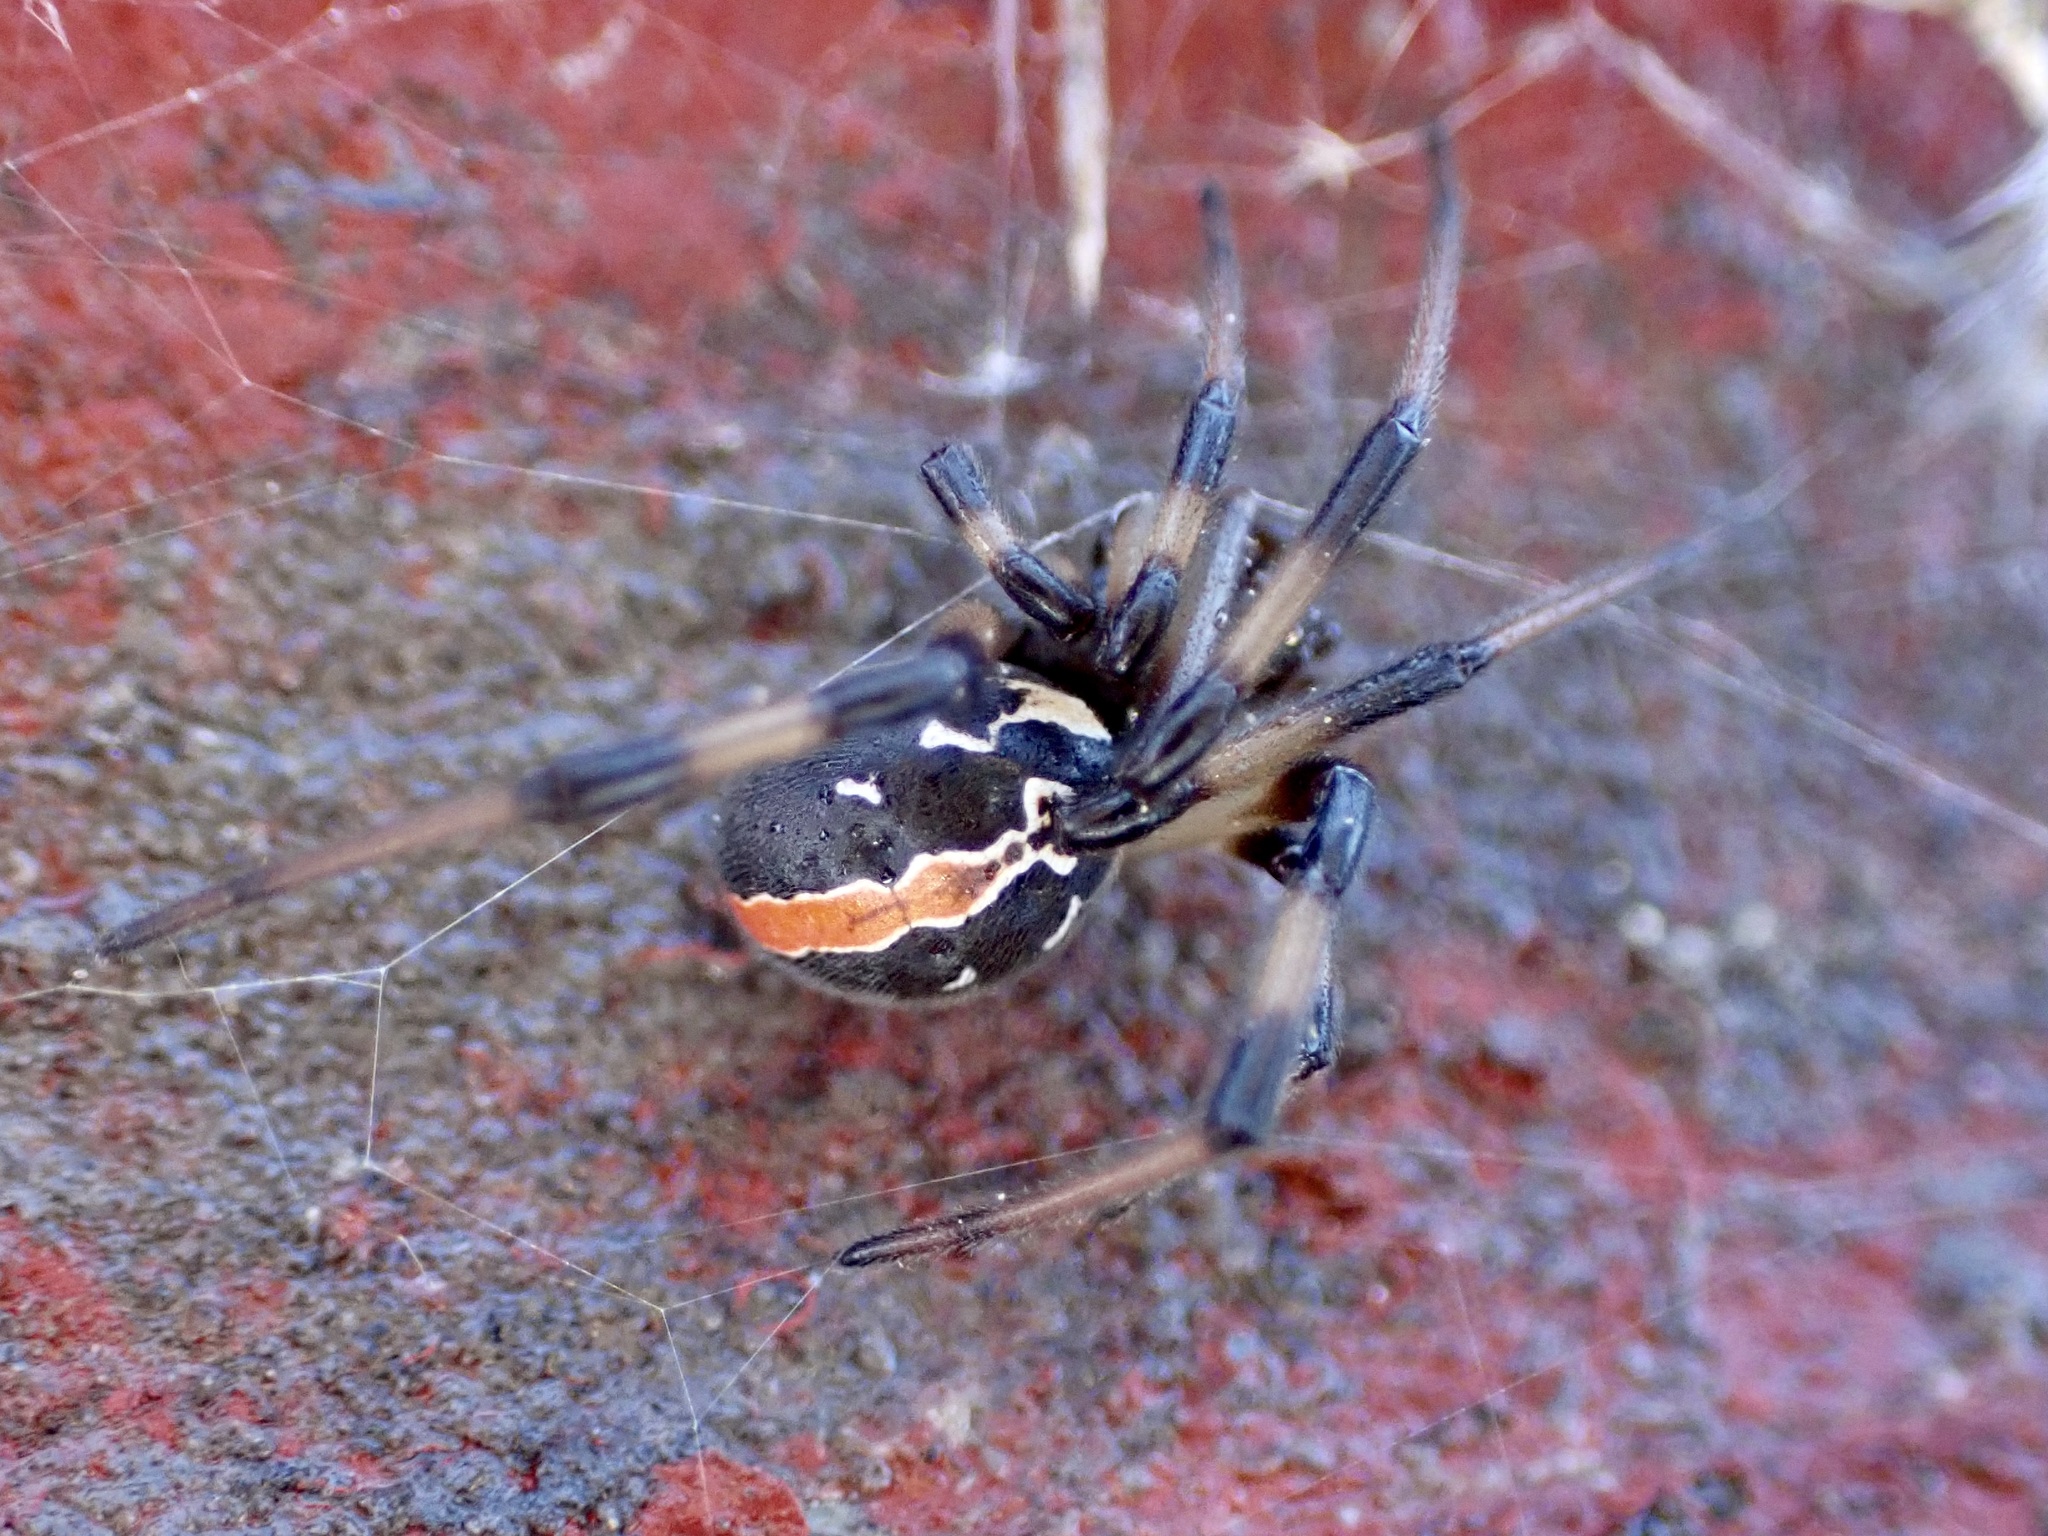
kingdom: Animalia
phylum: Arthropoda
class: Arachnida
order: Araneae
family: Theridiidae
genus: Latrodectus
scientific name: Latrodectus katipo
